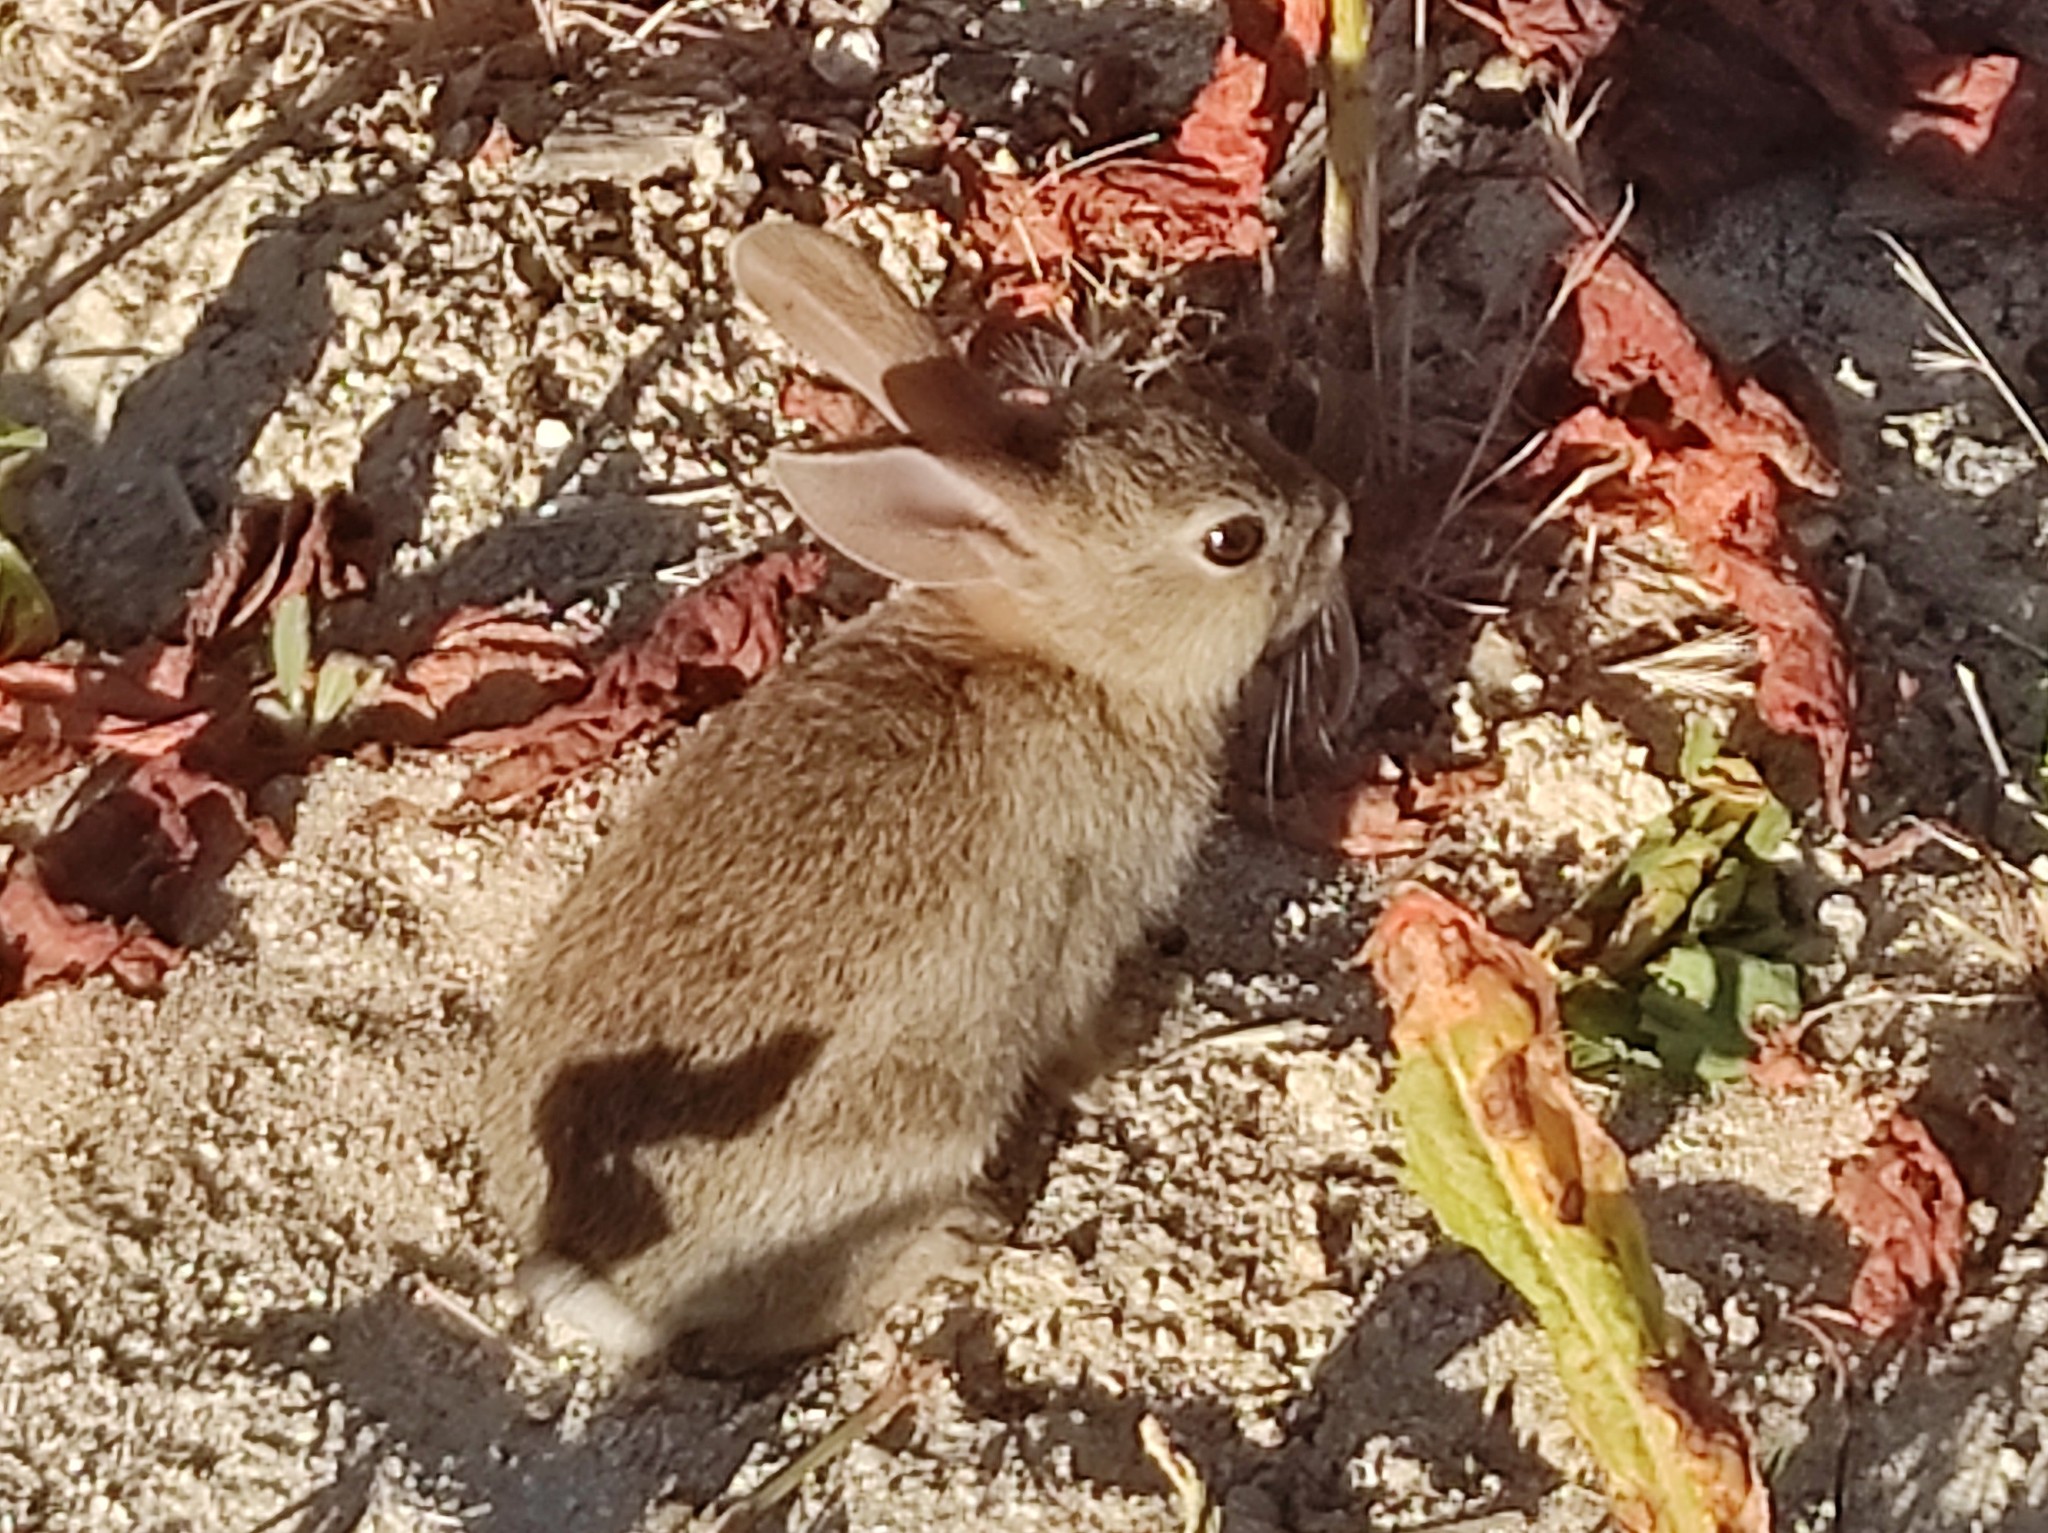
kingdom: Animalia
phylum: Chordata
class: Mammalia
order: Lagomorpha
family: Leporidae
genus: Oryctolagus
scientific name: Oryctolagus cuniculus
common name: European rabbit
